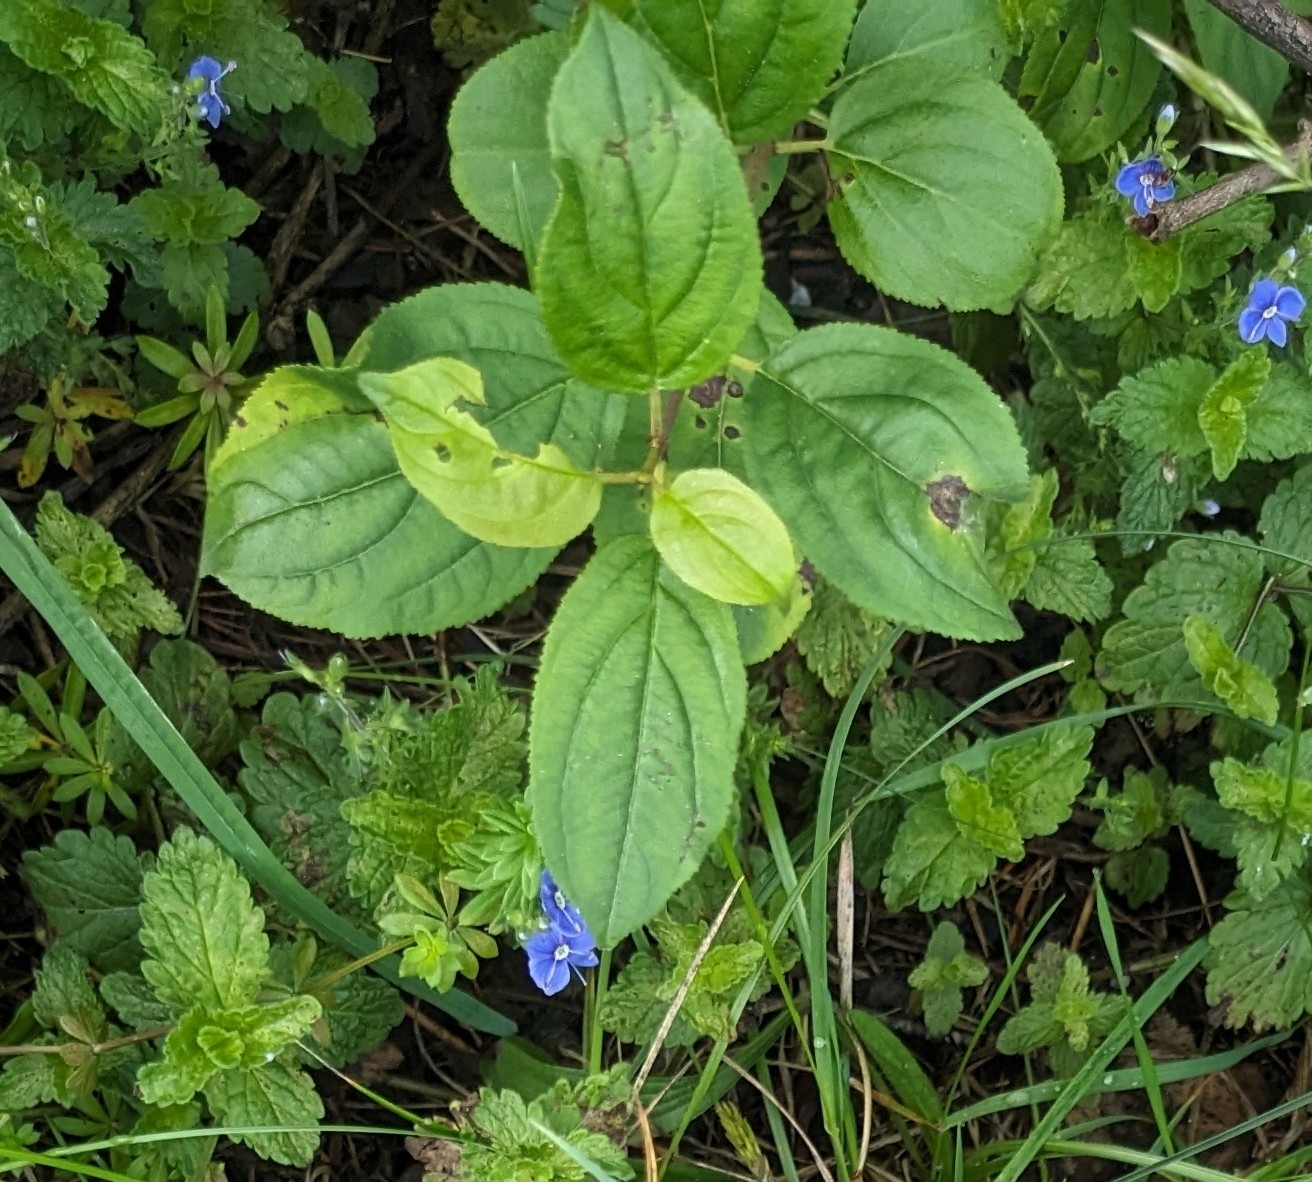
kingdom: Plantae
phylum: Tracheophyta
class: Magnoliopsida
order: Rosales
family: Rhamnaceae
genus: Rhamnus
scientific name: Rhamnus cathartica
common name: Common buckthorn
